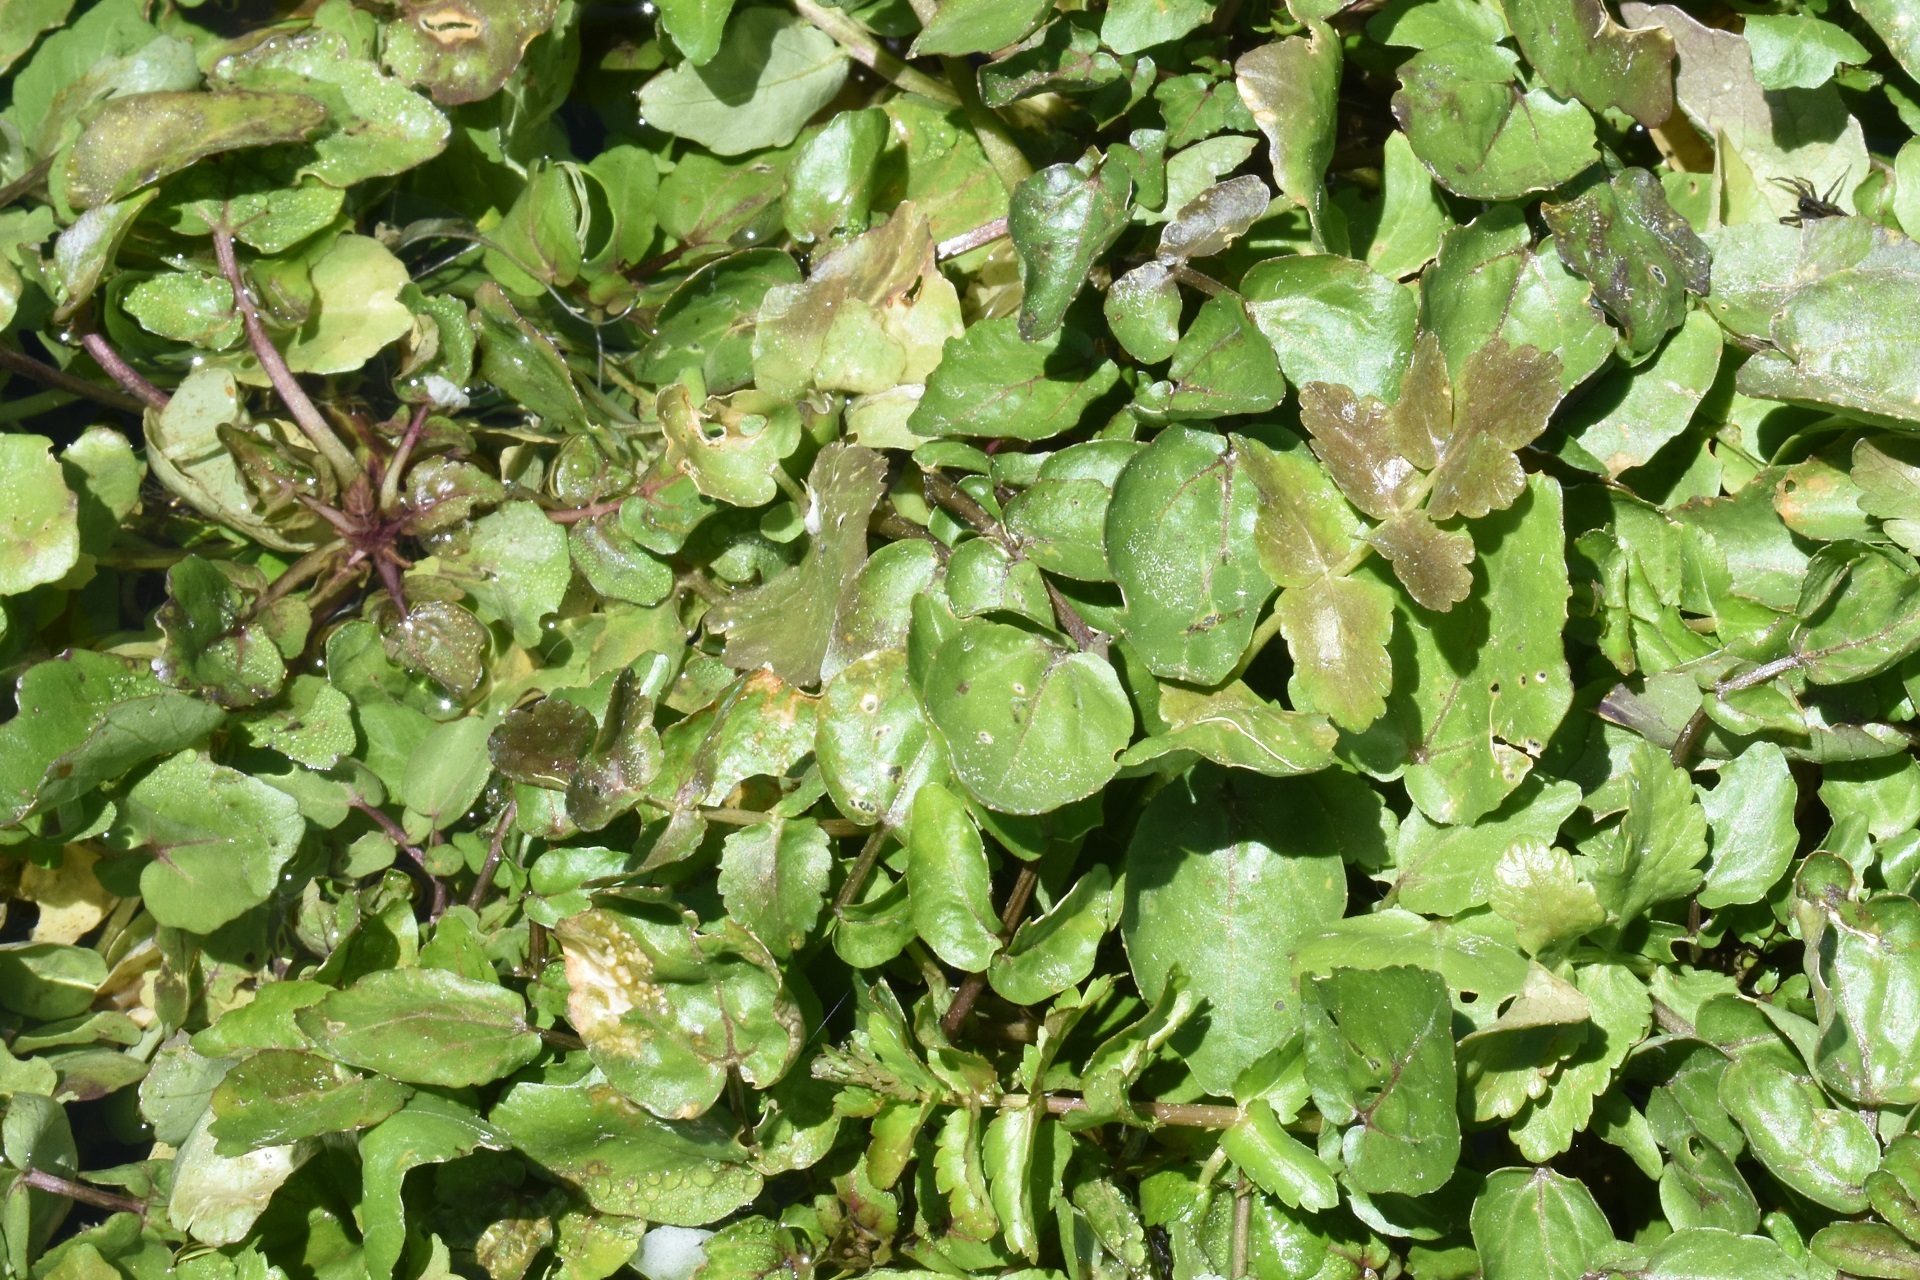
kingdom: Plantae
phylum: Tracheophyta
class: Magnoliopsida
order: Brassicales
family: Brassicaceae
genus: Nasturtium
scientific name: Nasturtium officinale
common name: Watercress
